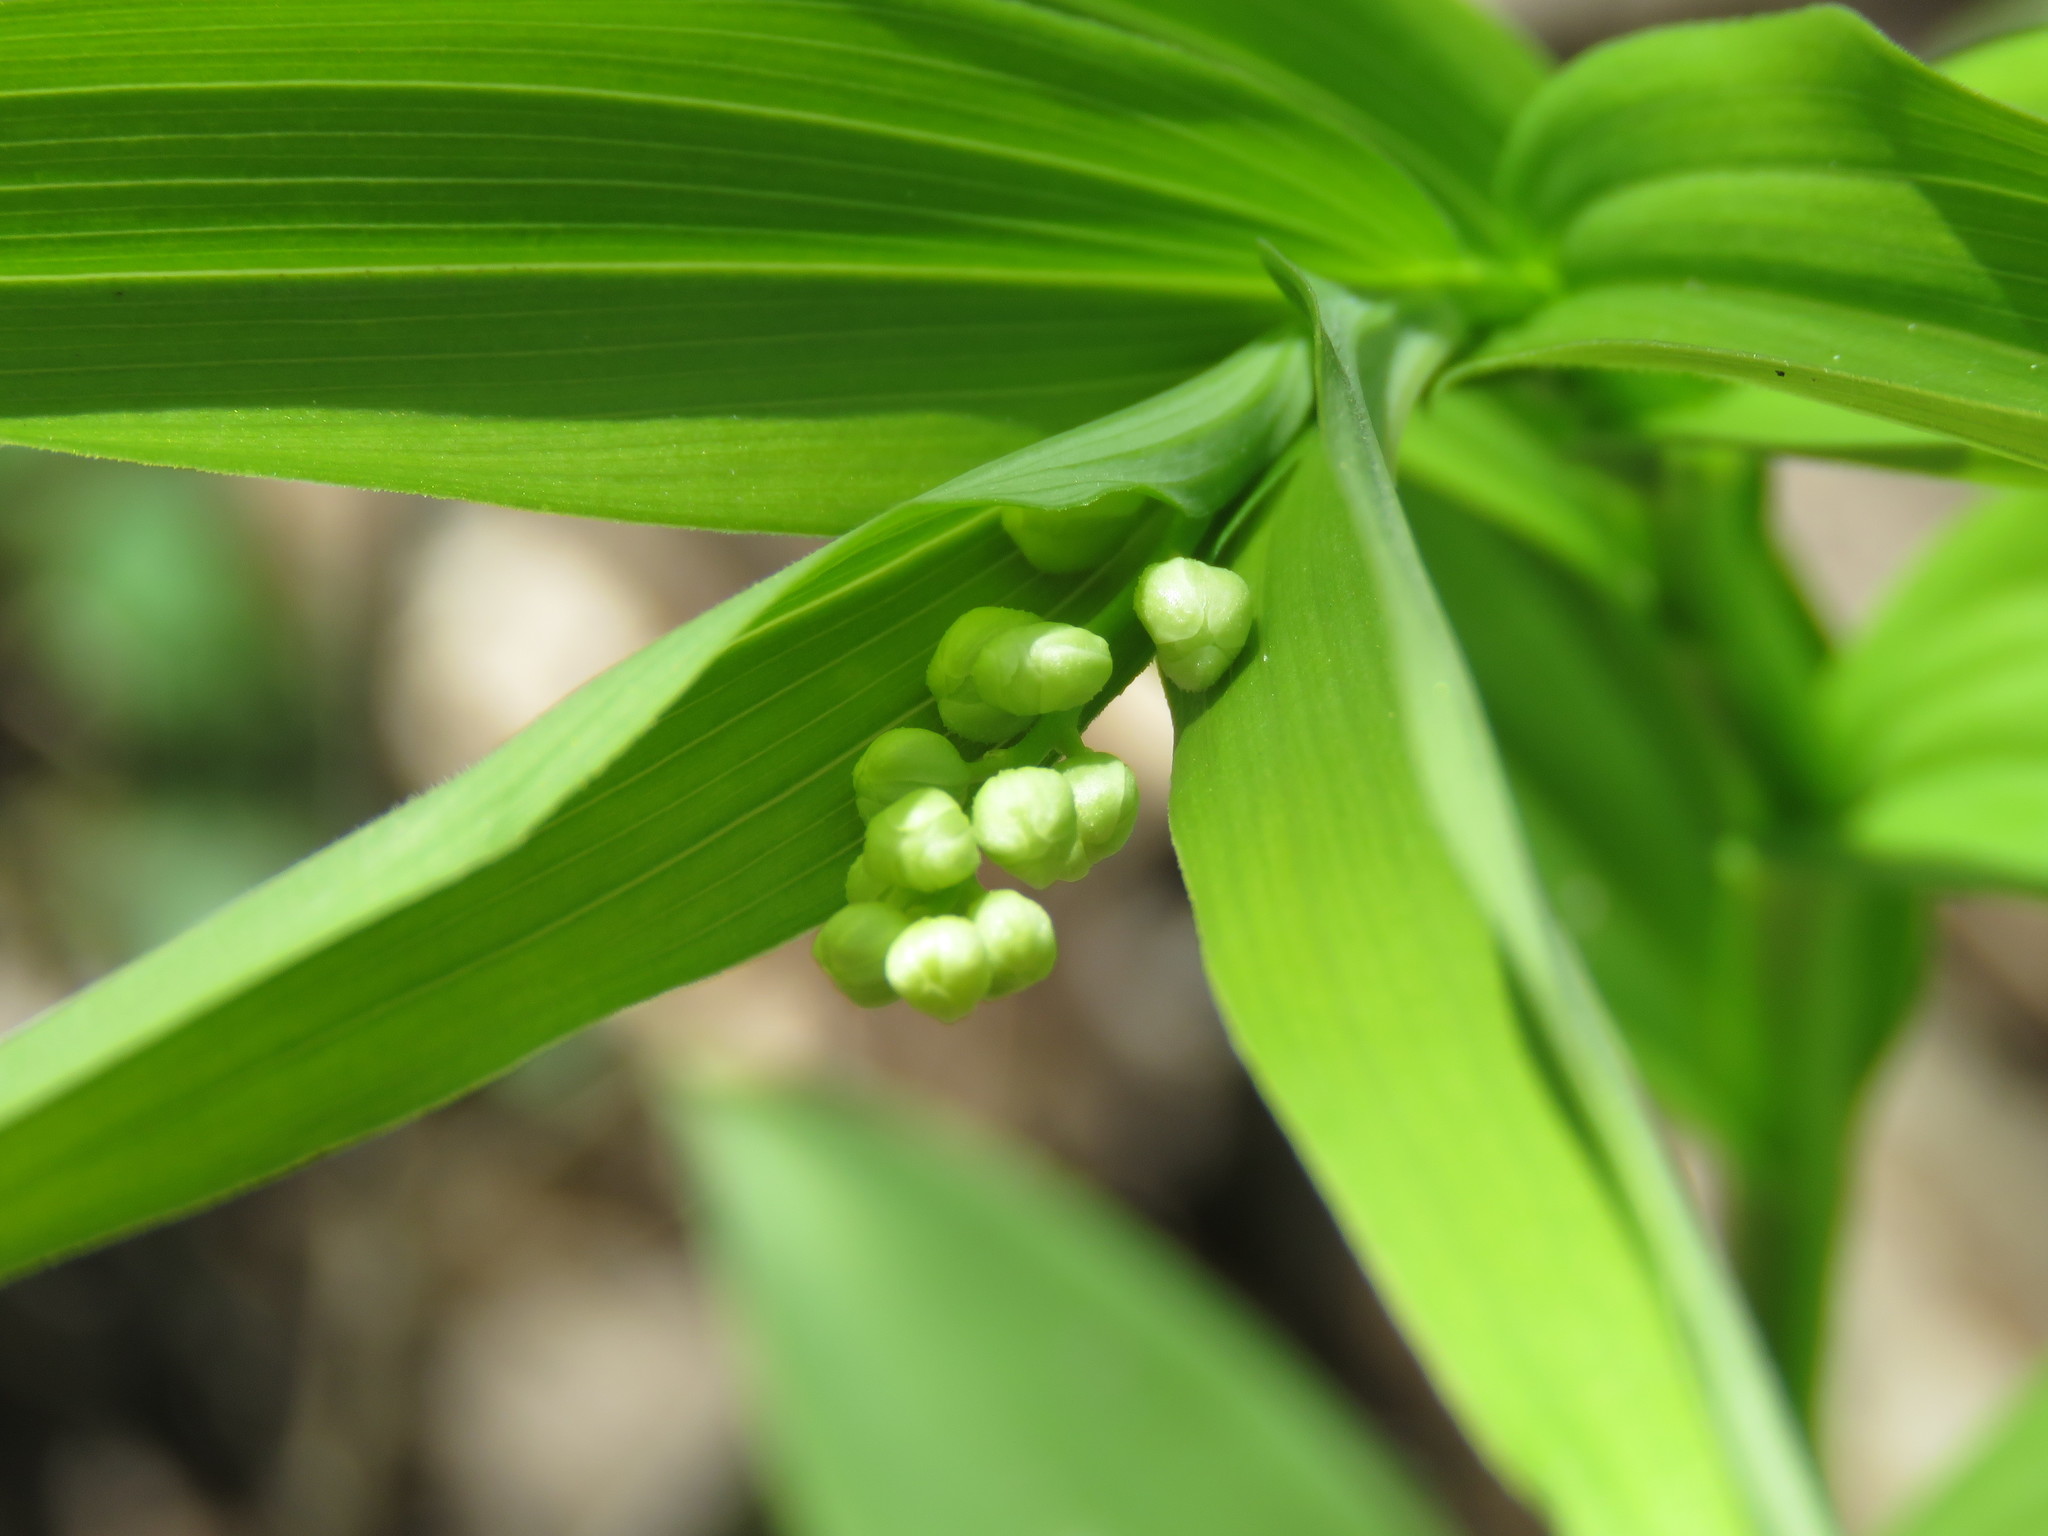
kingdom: Plantae
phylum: Tracheophyta
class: Liliopsida
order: Asparagales
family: Asparagaceae
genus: Maianthemum
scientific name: Maianthemum stellatum
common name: Little false solomon's seal
